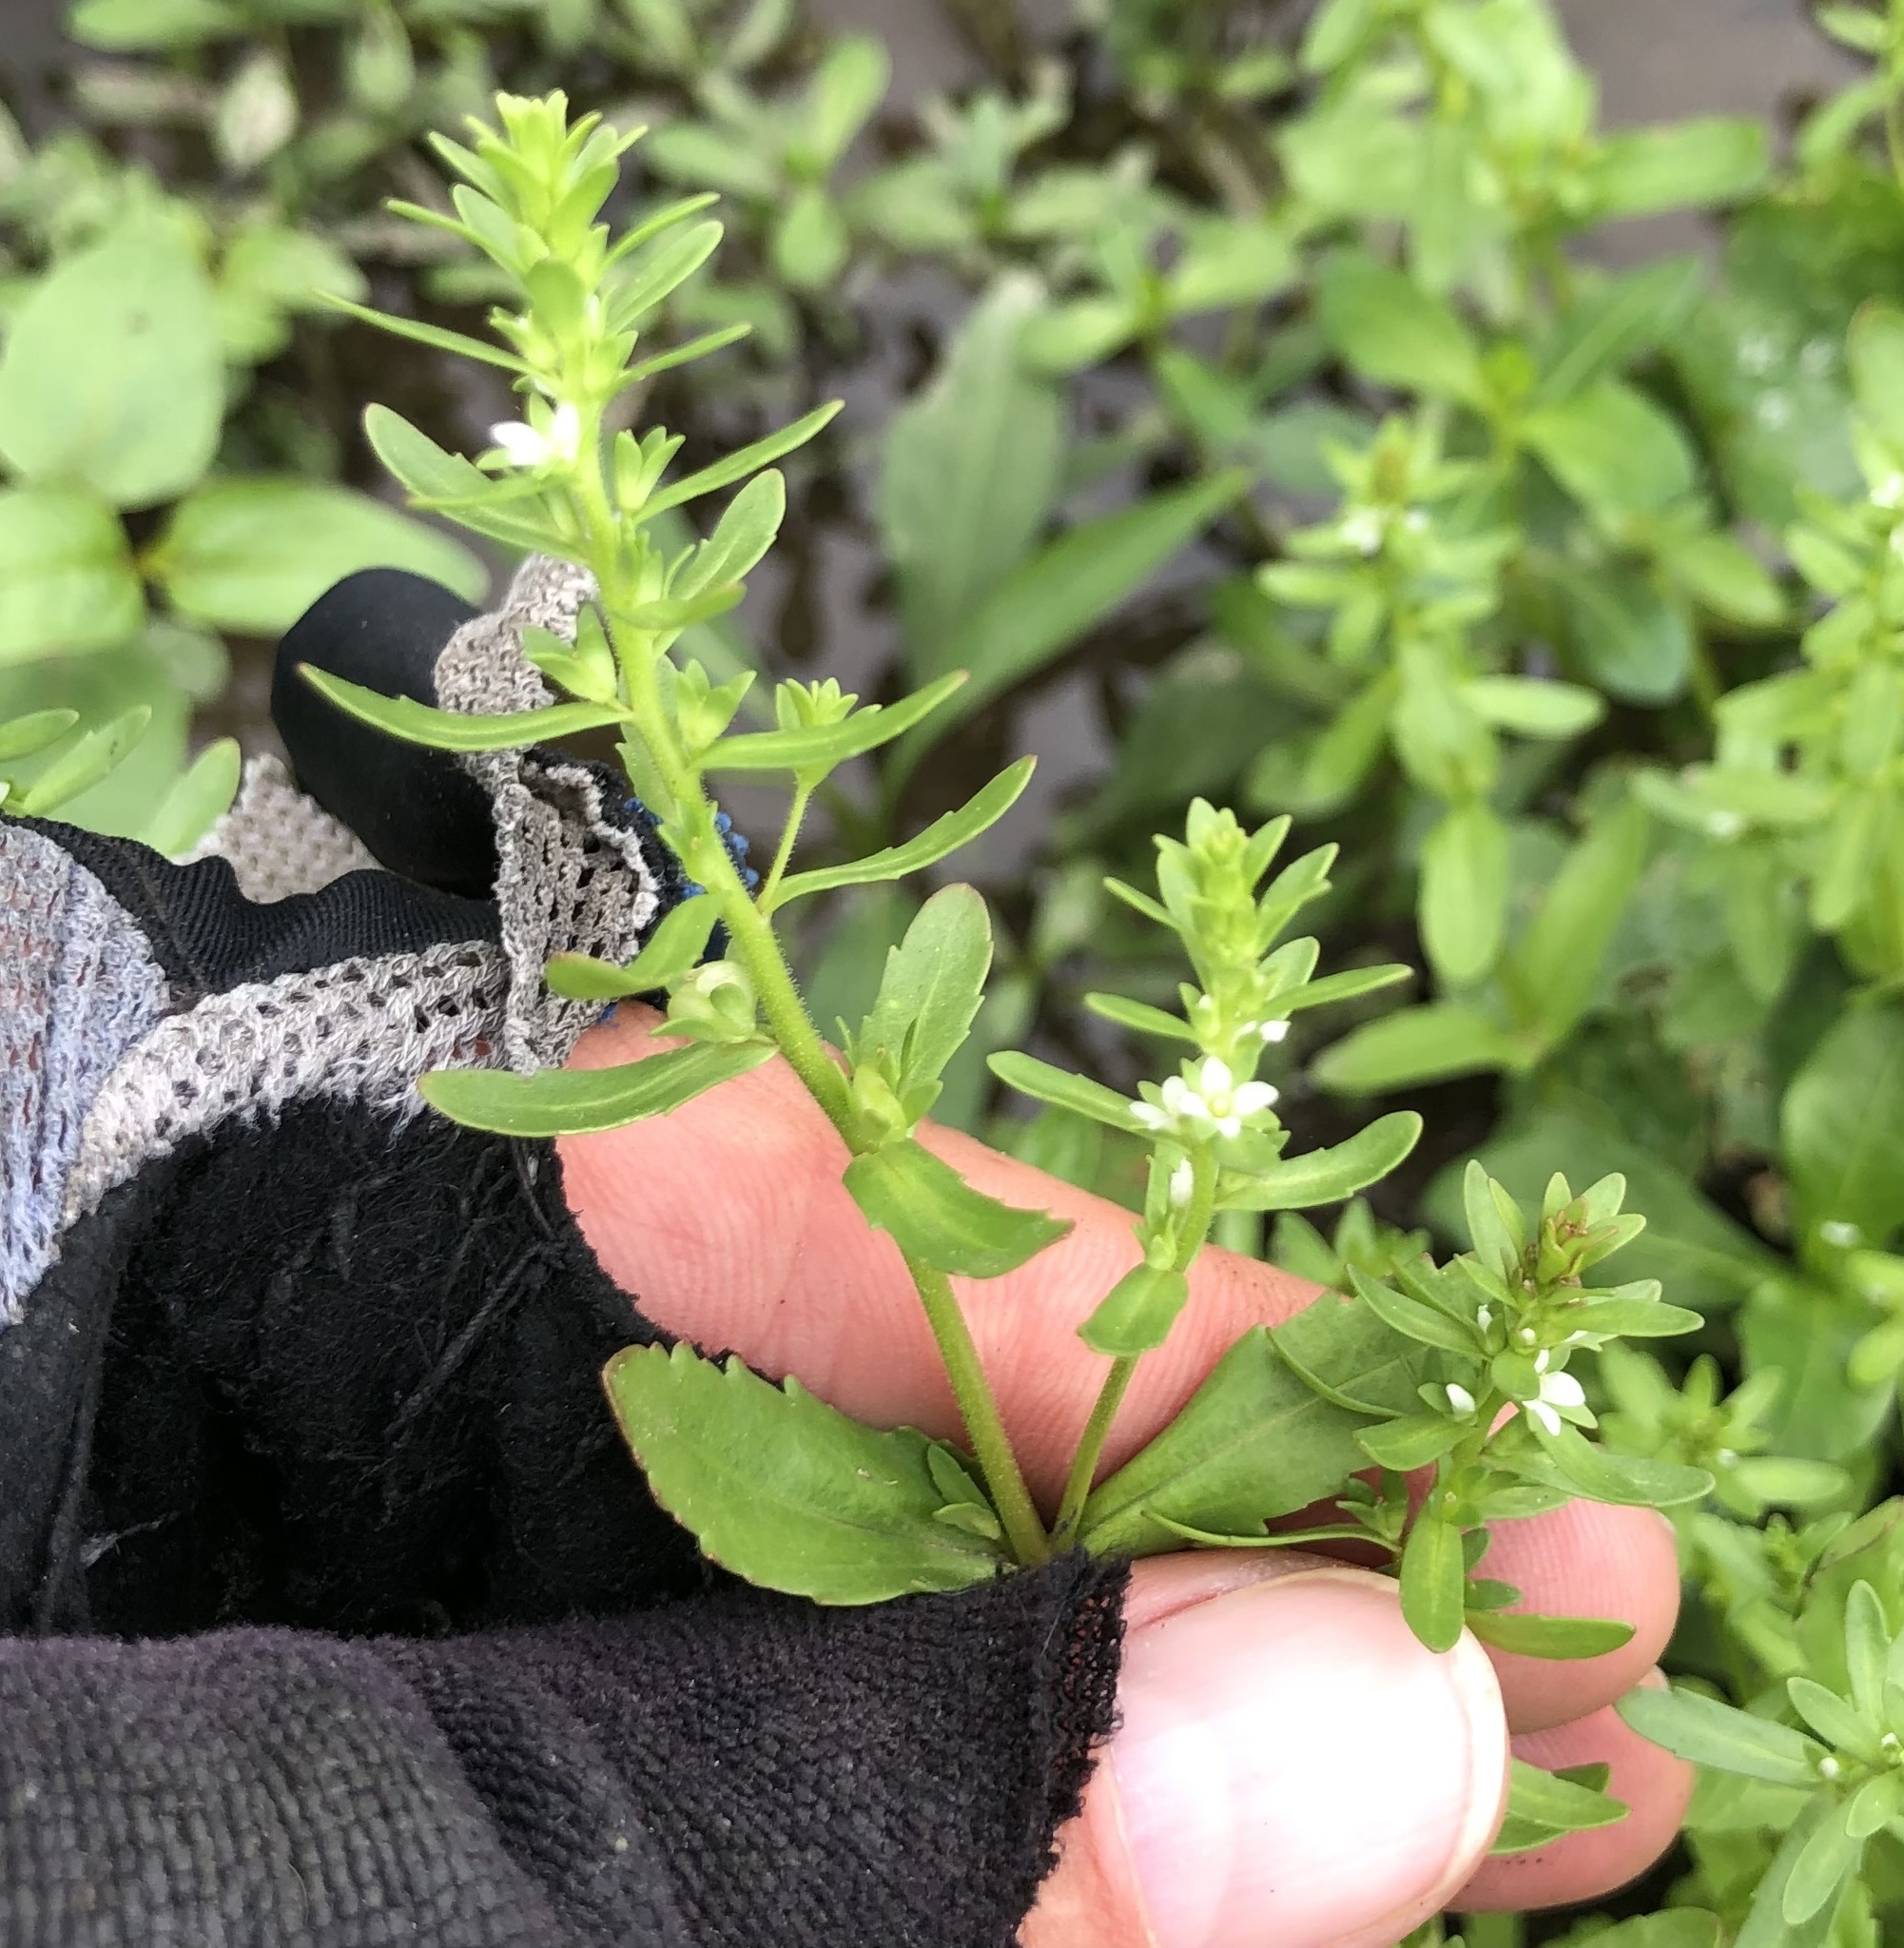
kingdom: Plantae
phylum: Tracheophyta
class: Magnoliopsida
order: Lamiales
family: Plantaginaceae
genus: Veronica
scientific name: Veronica peregrina
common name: Neckweed
